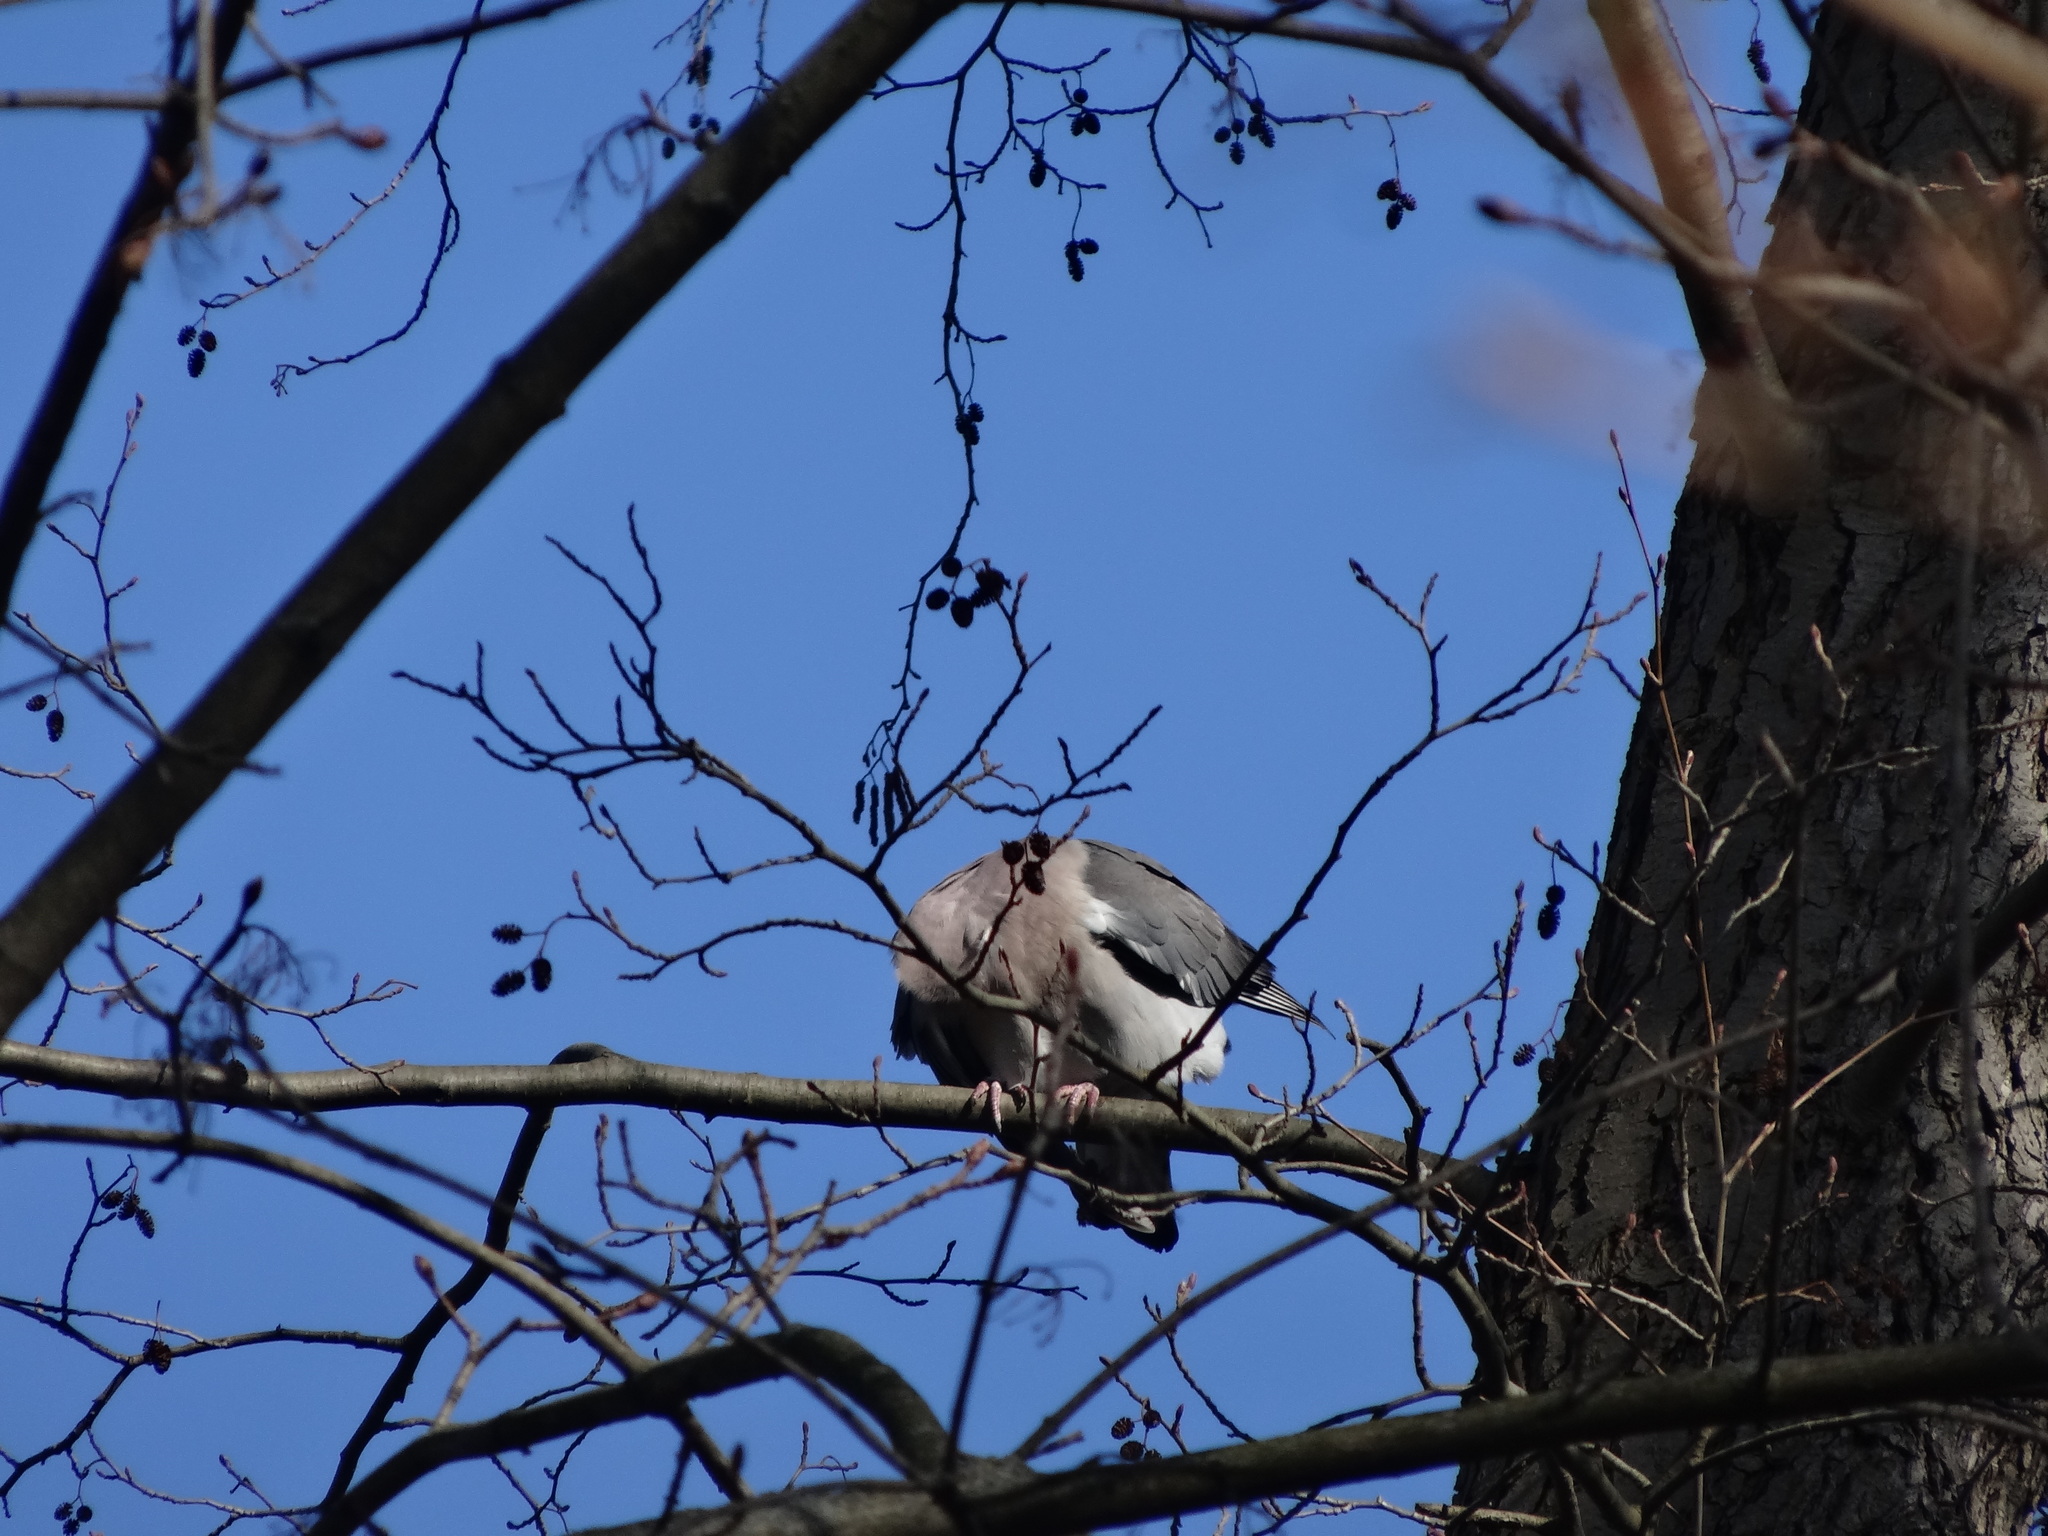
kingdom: Animalia
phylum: Chordata
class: Aves
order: Columbiformes
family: Columbidae
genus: Columba
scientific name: Columba livia
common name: Rock pigeon
